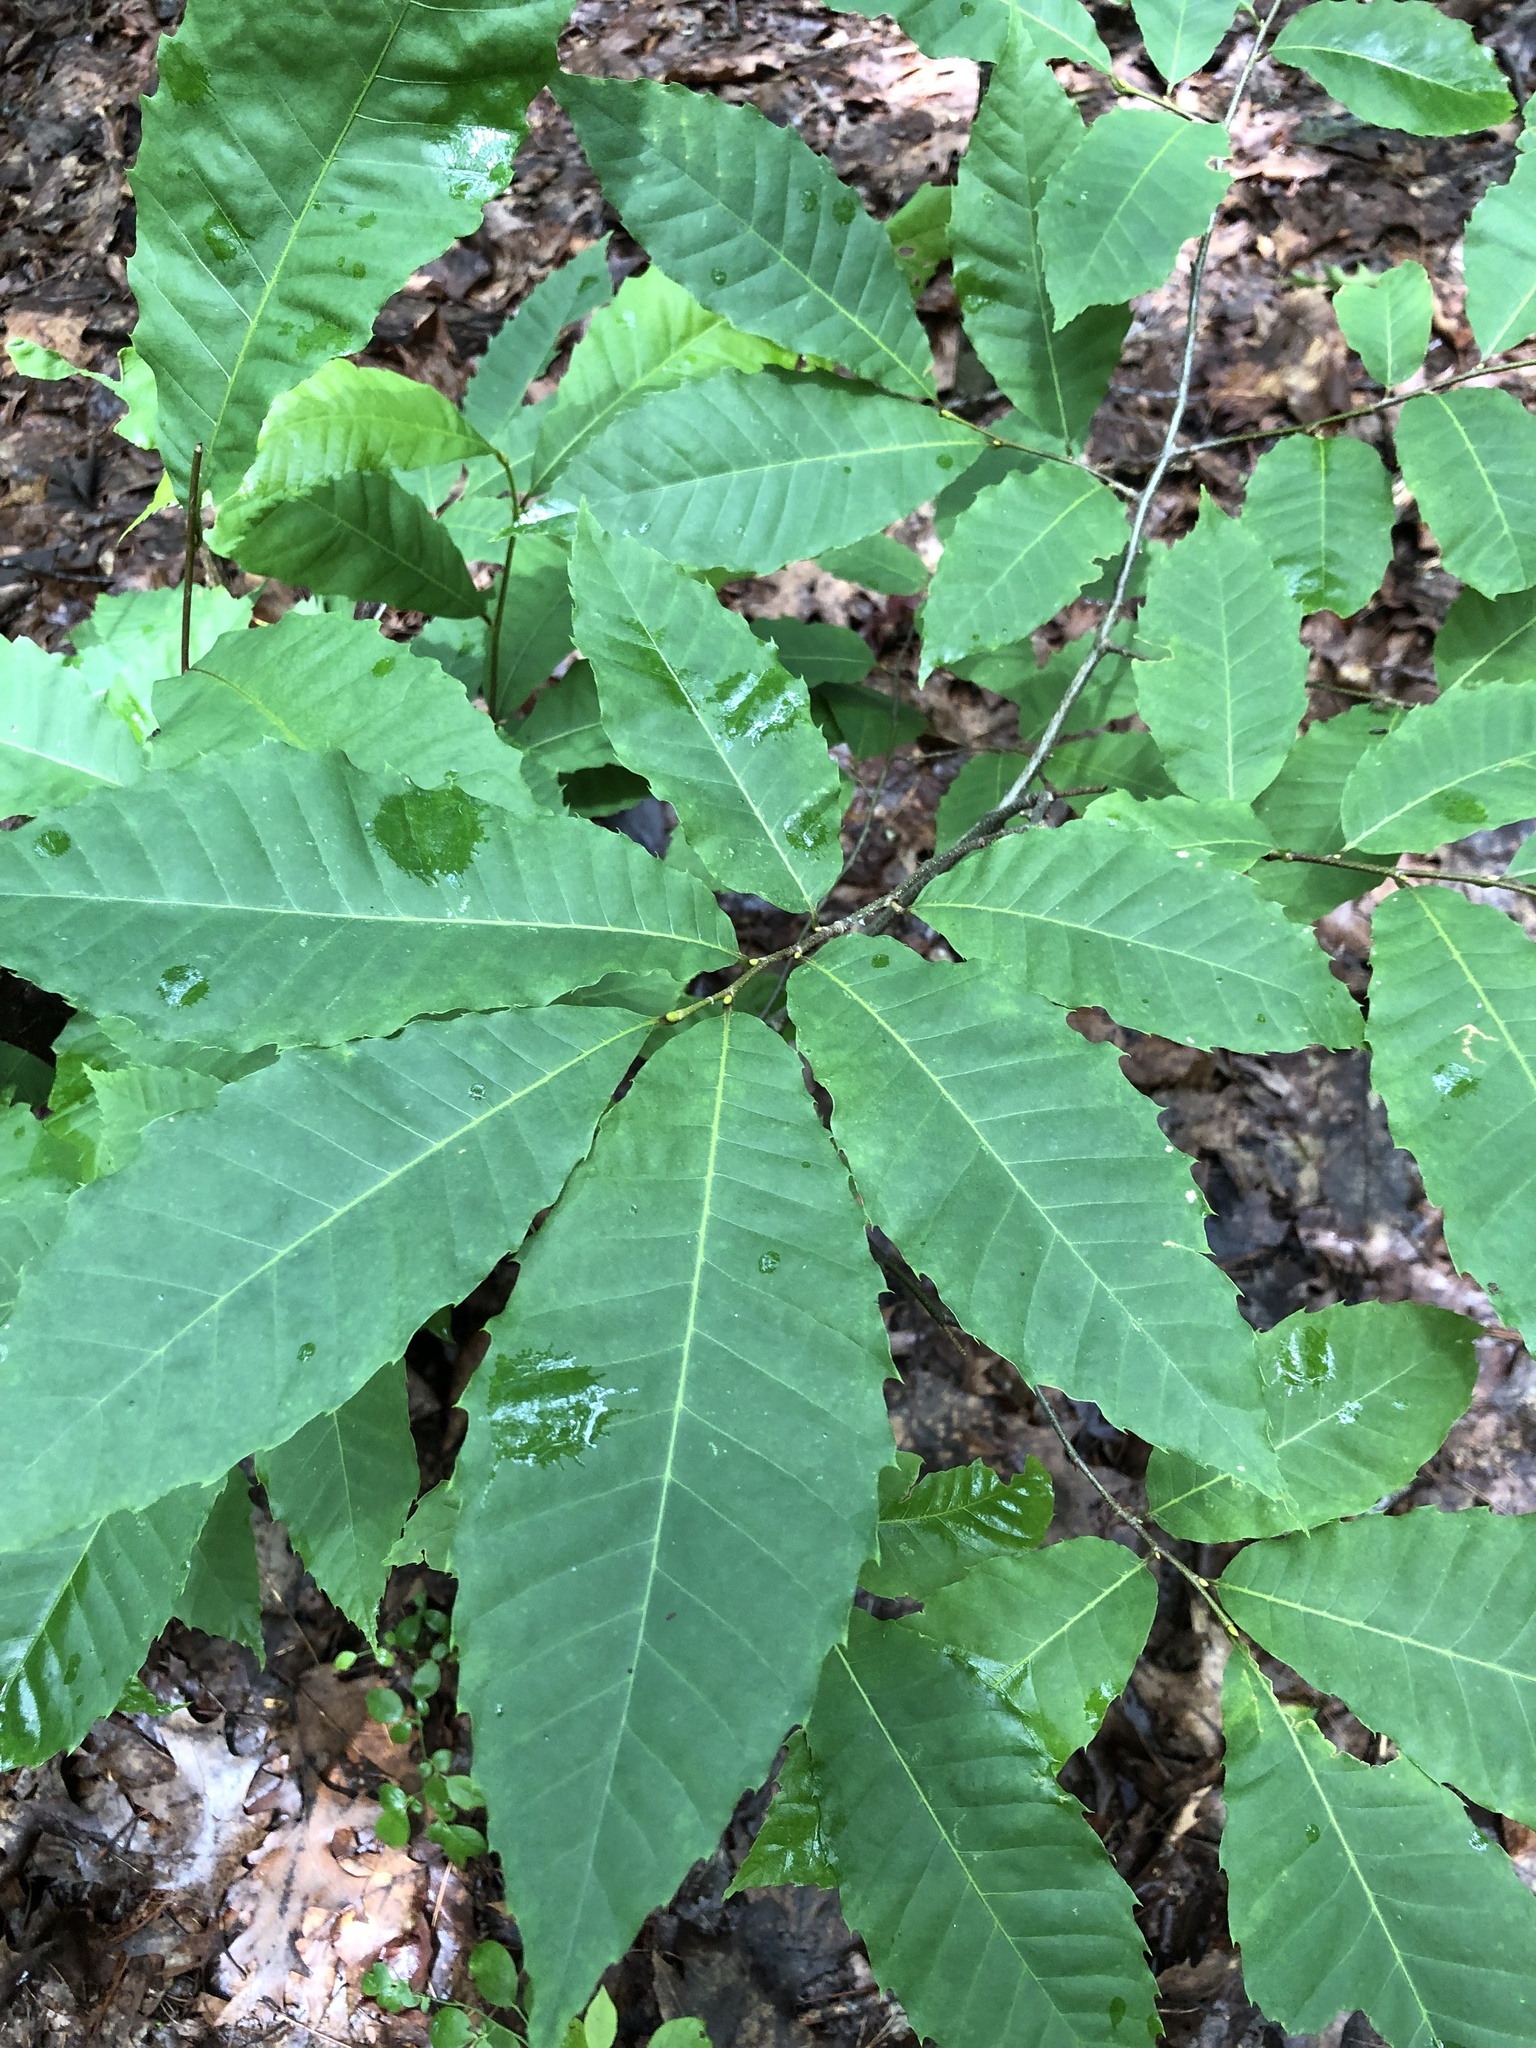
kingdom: Plantae
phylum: Tracheophyta
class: Magnoliopsida
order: Fagales
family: Fagaceae
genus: Castanea
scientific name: Castanea dentata
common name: American chestnut
